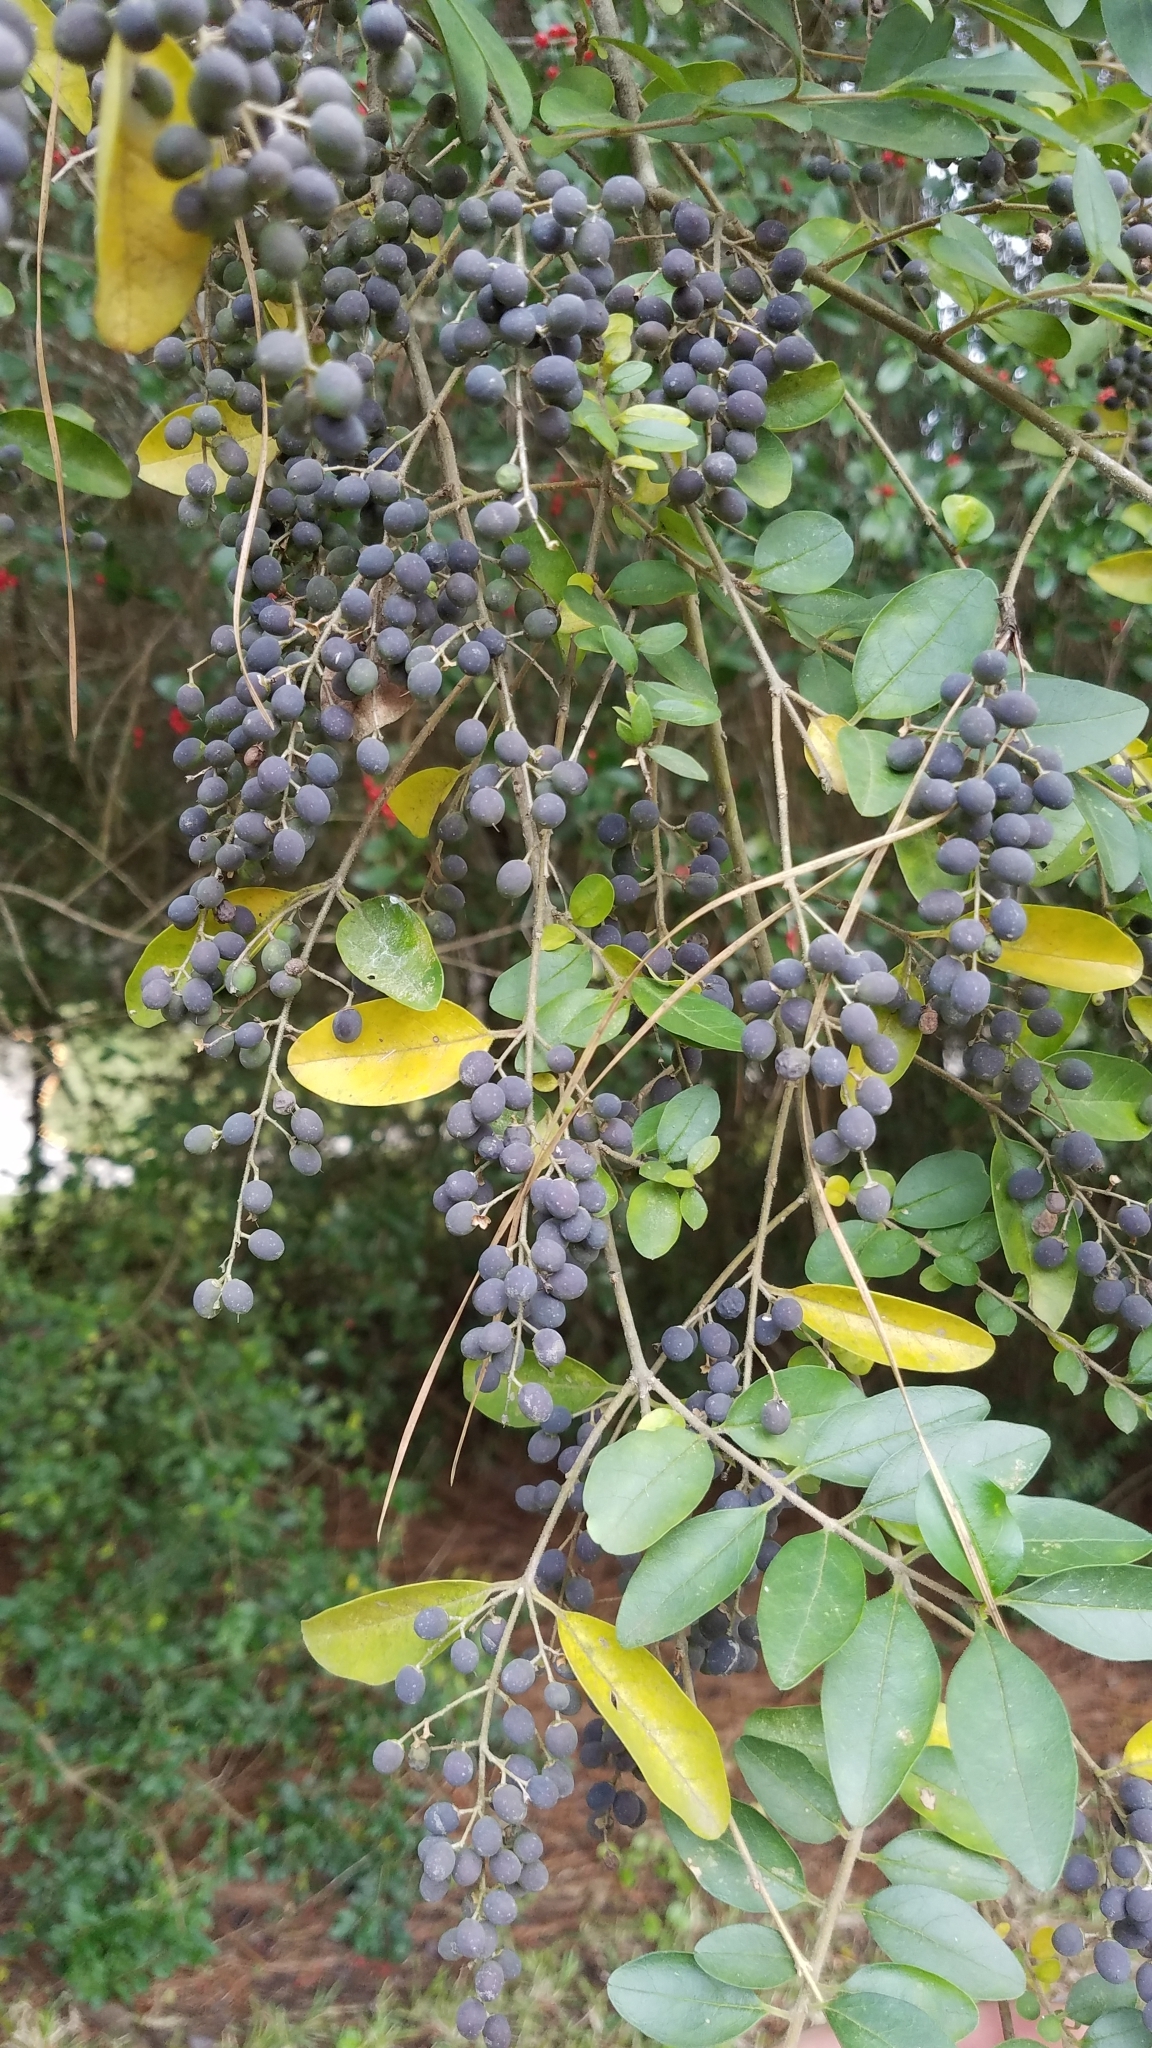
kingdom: Plantae
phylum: Tracheophyta
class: Magnoliopsida
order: Lamiales
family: Oleaceae
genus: Ligustrum
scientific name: Ligustrum sinense
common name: Chinese privet
